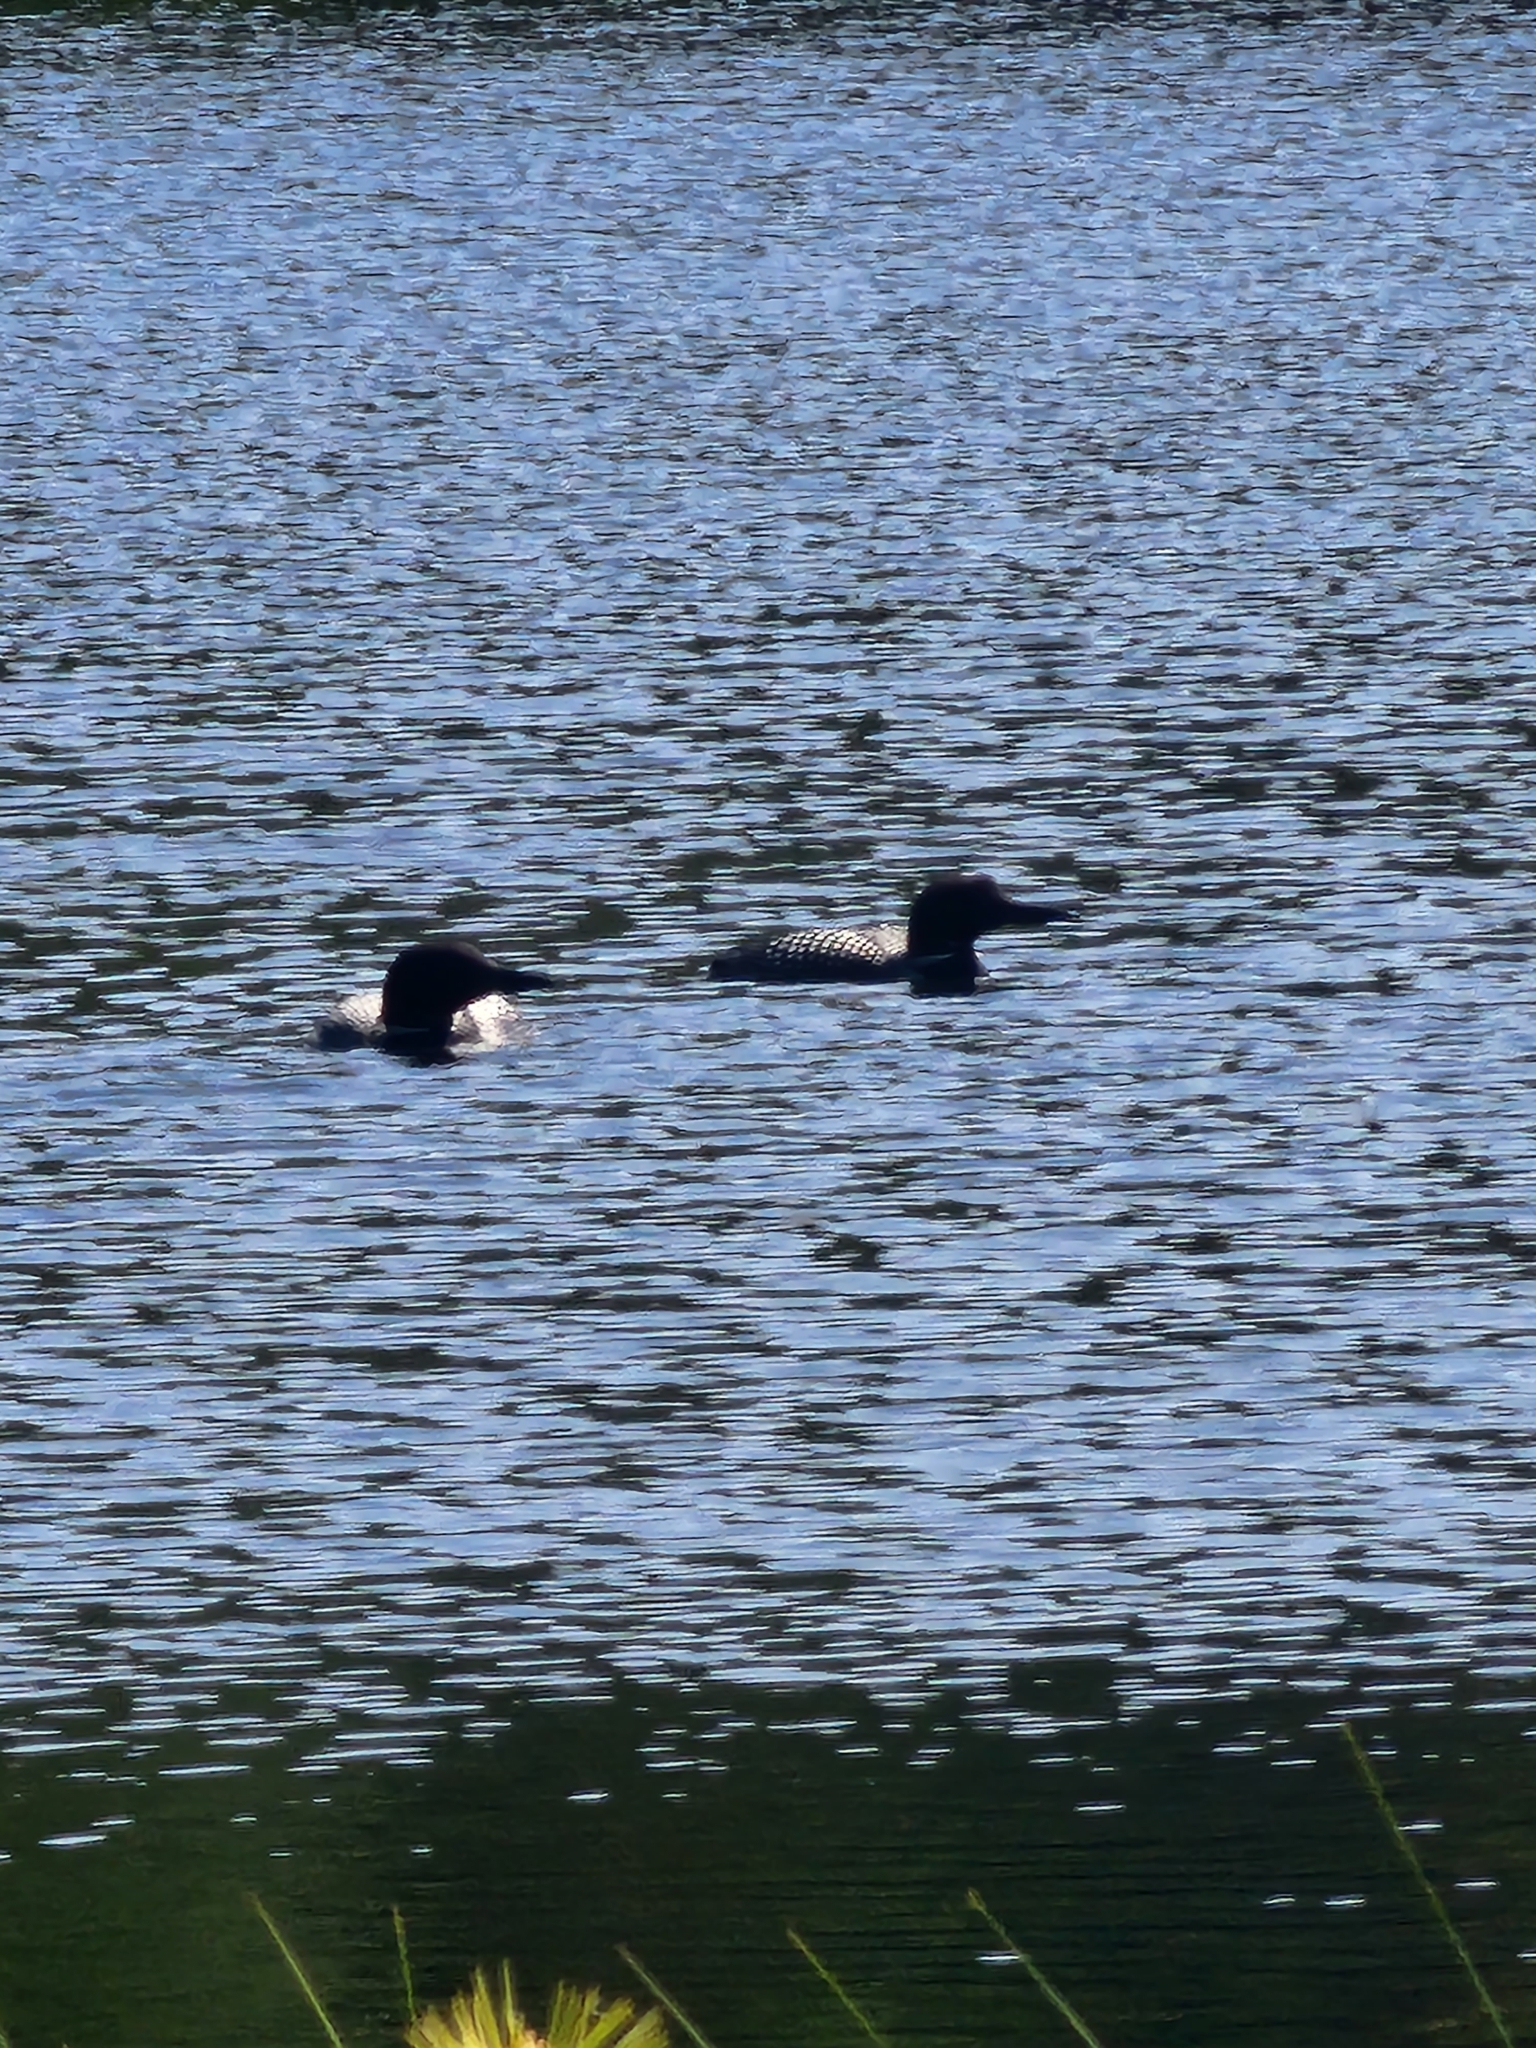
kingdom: Animalia
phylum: Chordata
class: Aves
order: Gaviiformes
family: Gaviidae
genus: Gavia
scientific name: Gavia immer
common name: Common loon
